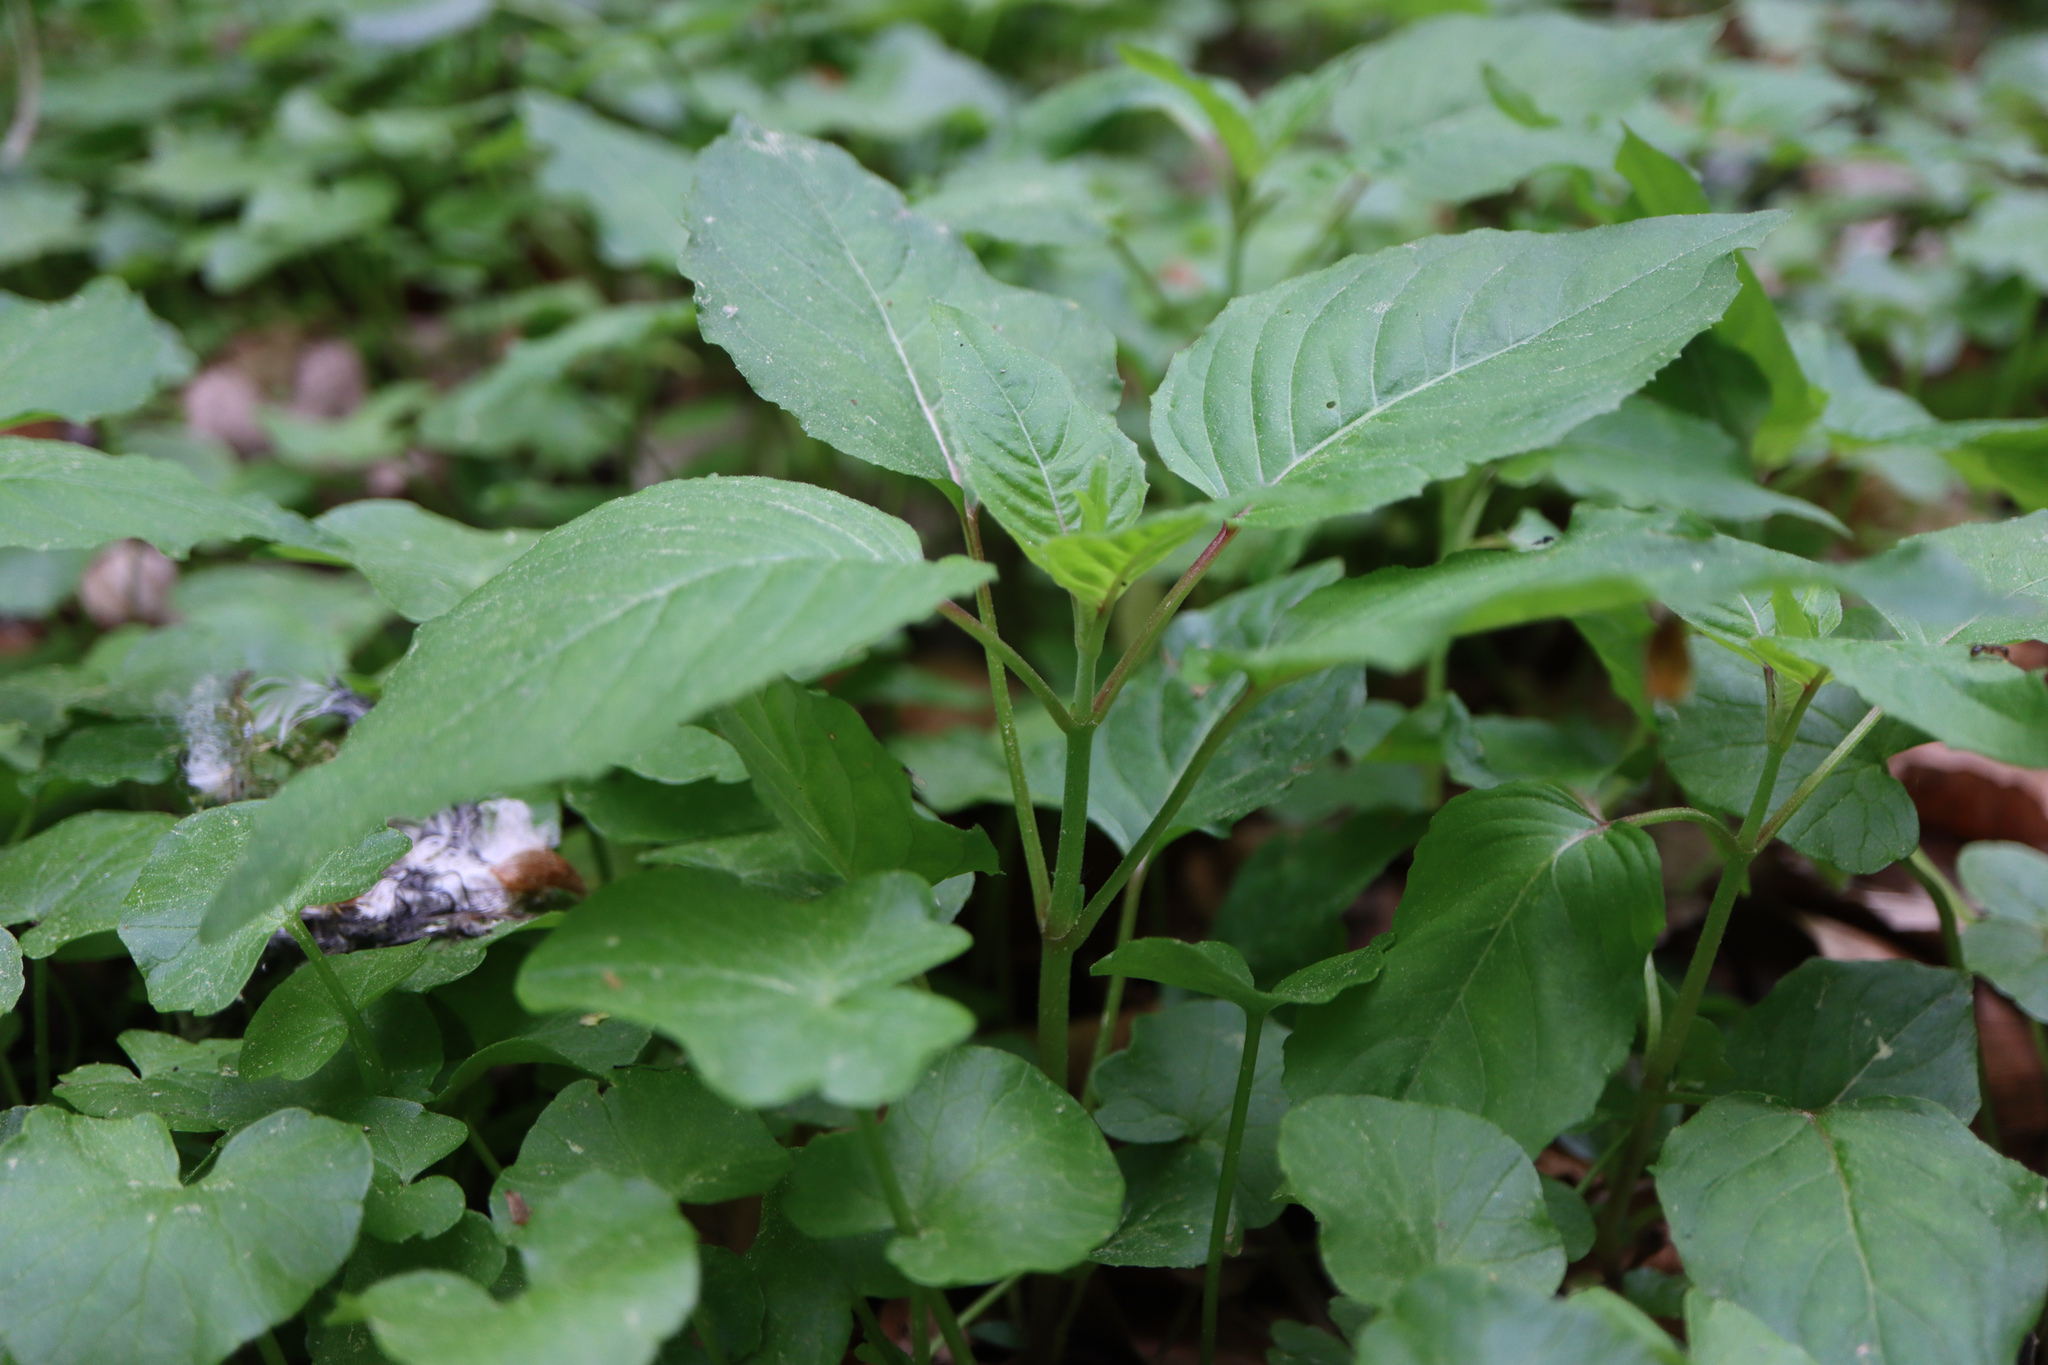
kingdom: Plantae
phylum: Tracheophyta
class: Magnoliopsida
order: Myrtales
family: Onagraceae
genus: Circaea
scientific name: Circaea lutetiana
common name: Enchanter's-nightshade
